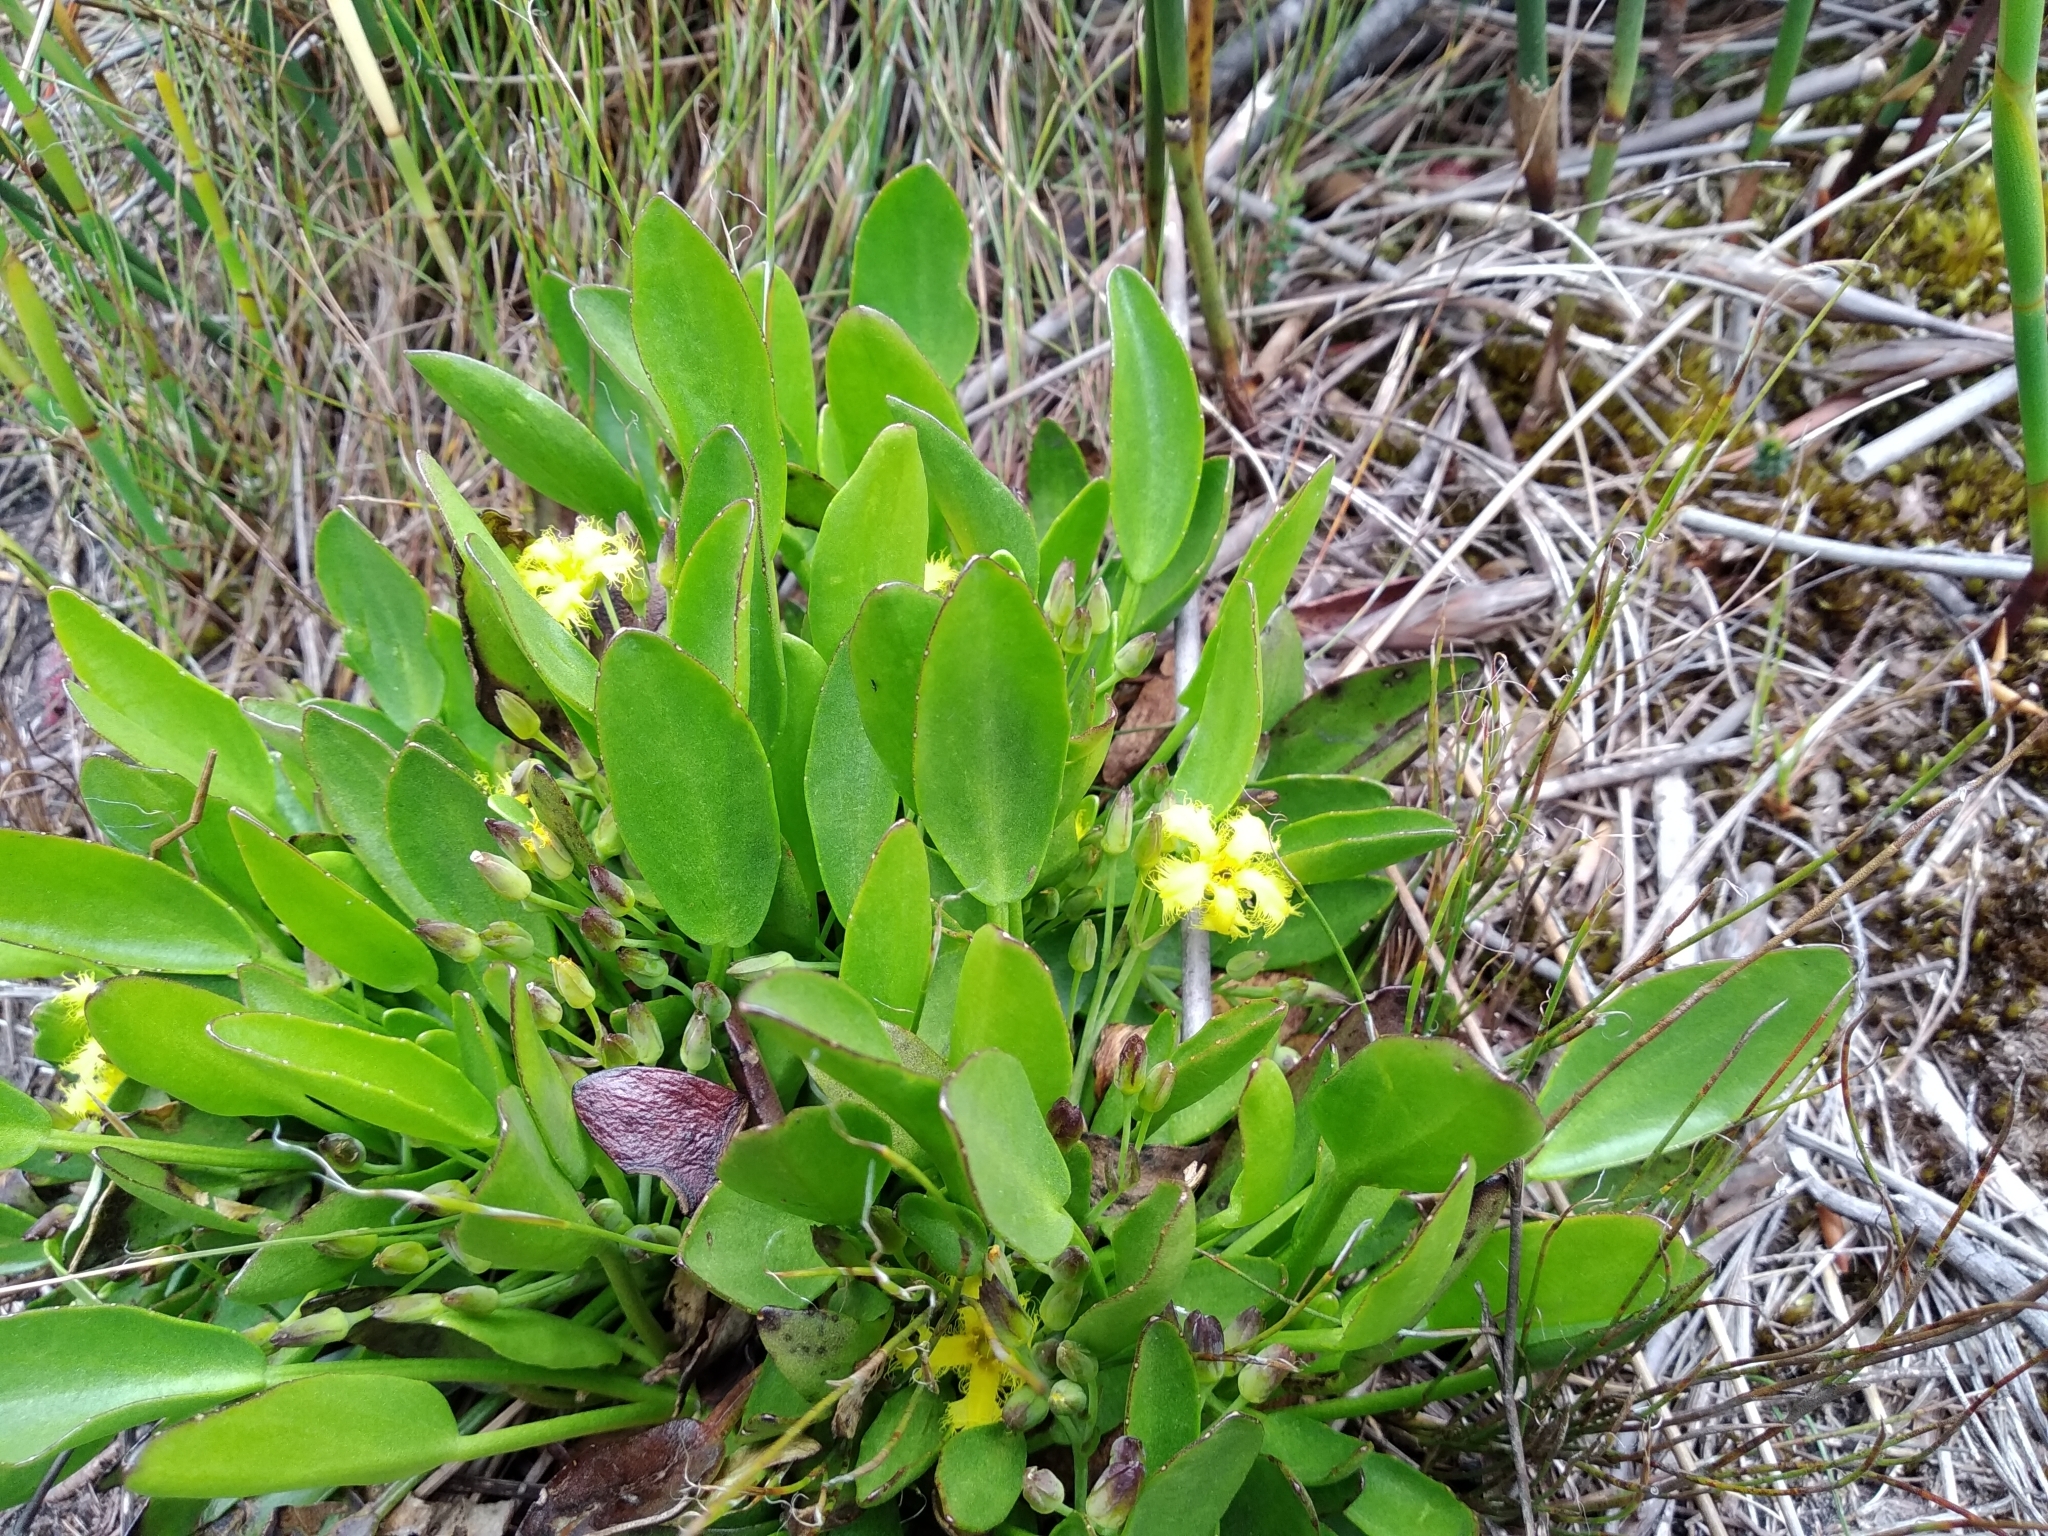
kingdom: Plantae
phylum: Tracheophyta
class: Magnoliopsida
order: Asterales
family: Menyanthaceae
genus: Villarsia
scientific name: Villarsia manningiana
